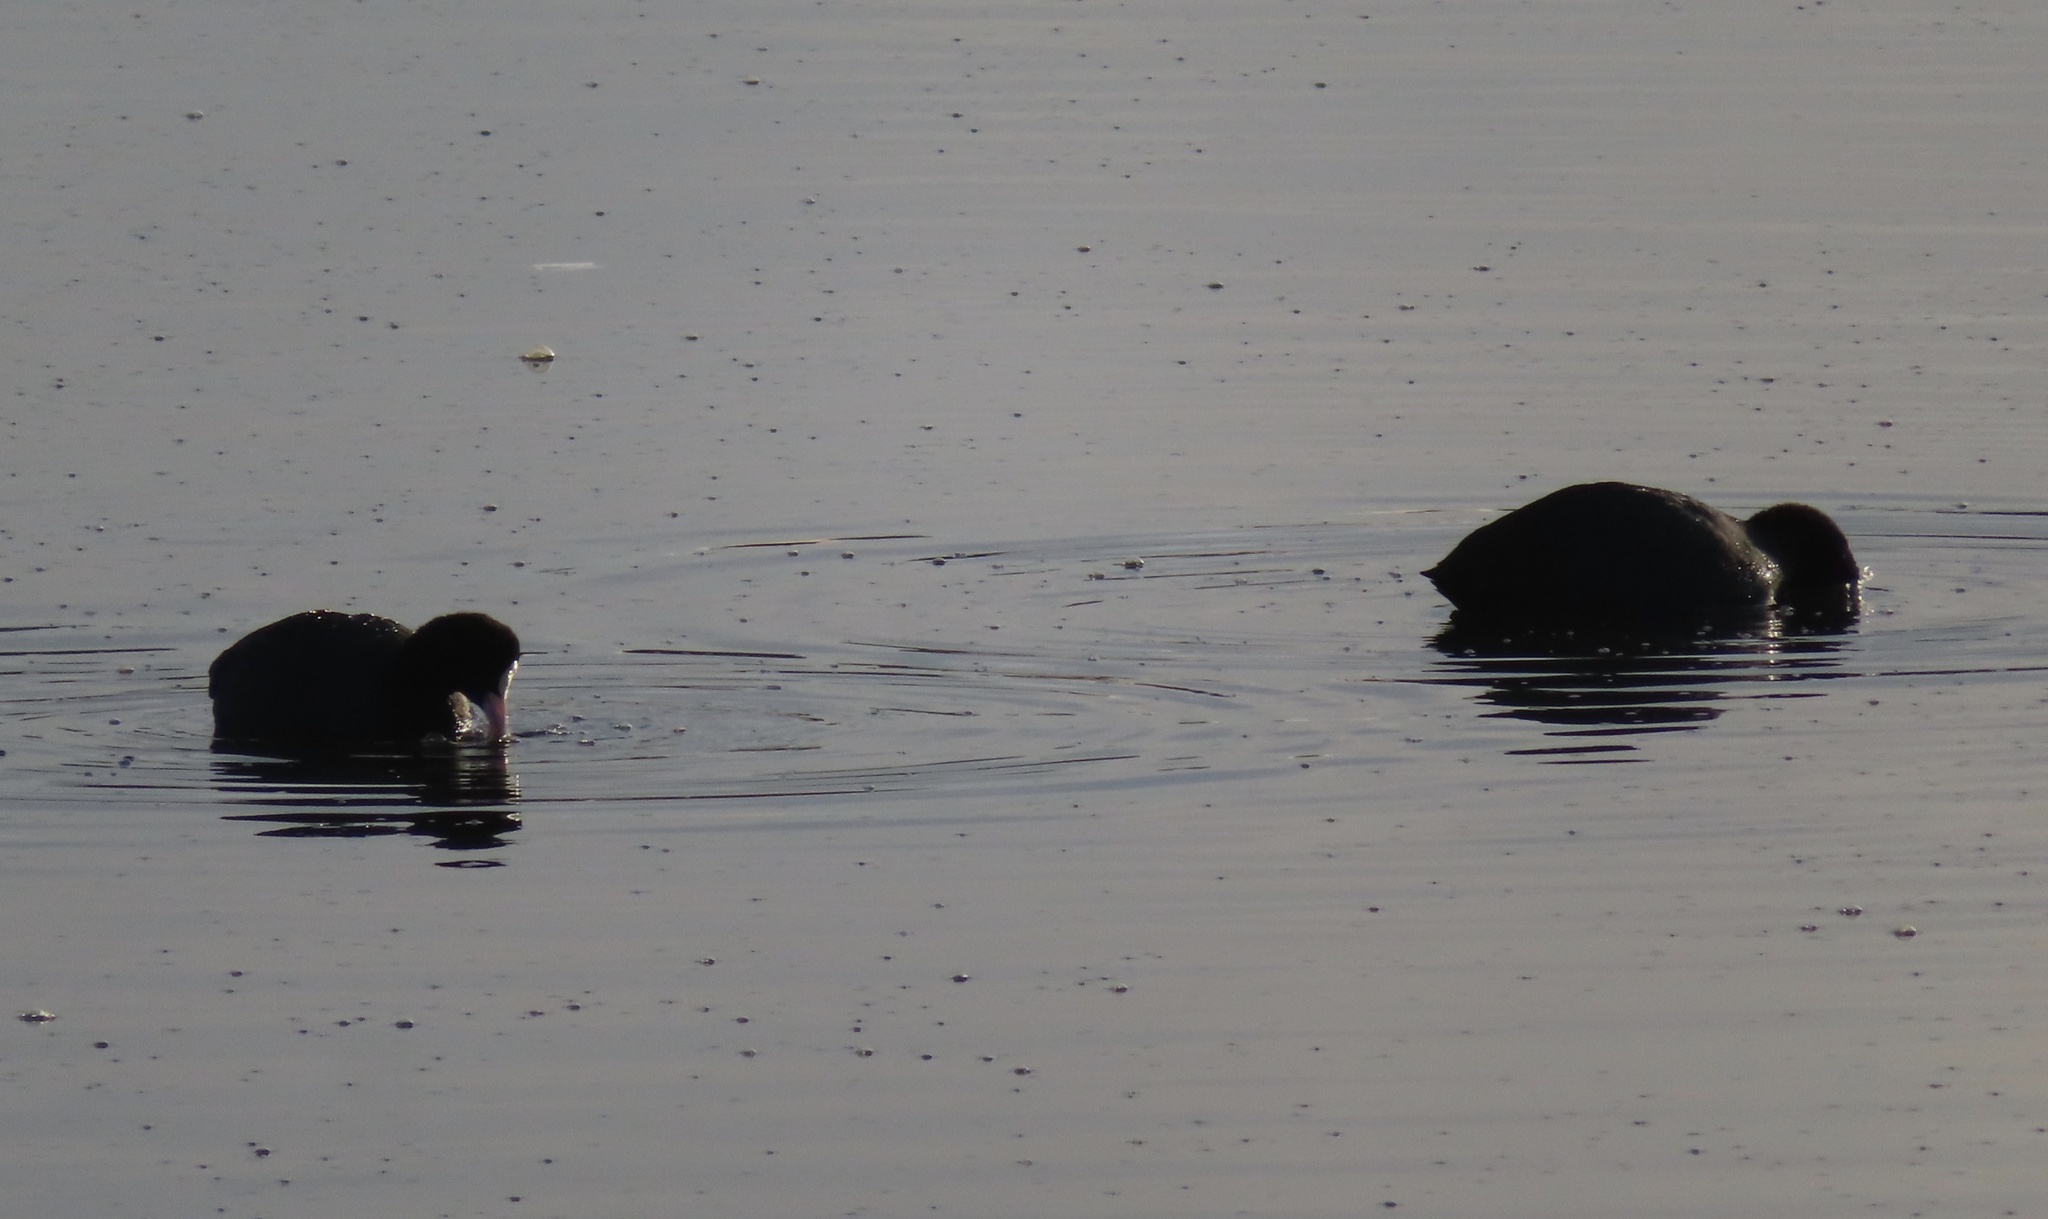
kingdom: Animalia
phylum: Chordata
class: Aves
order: Gruiformes
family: Rallidae
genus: Fulica
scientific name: Fulica atra
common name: Eurasian coot
